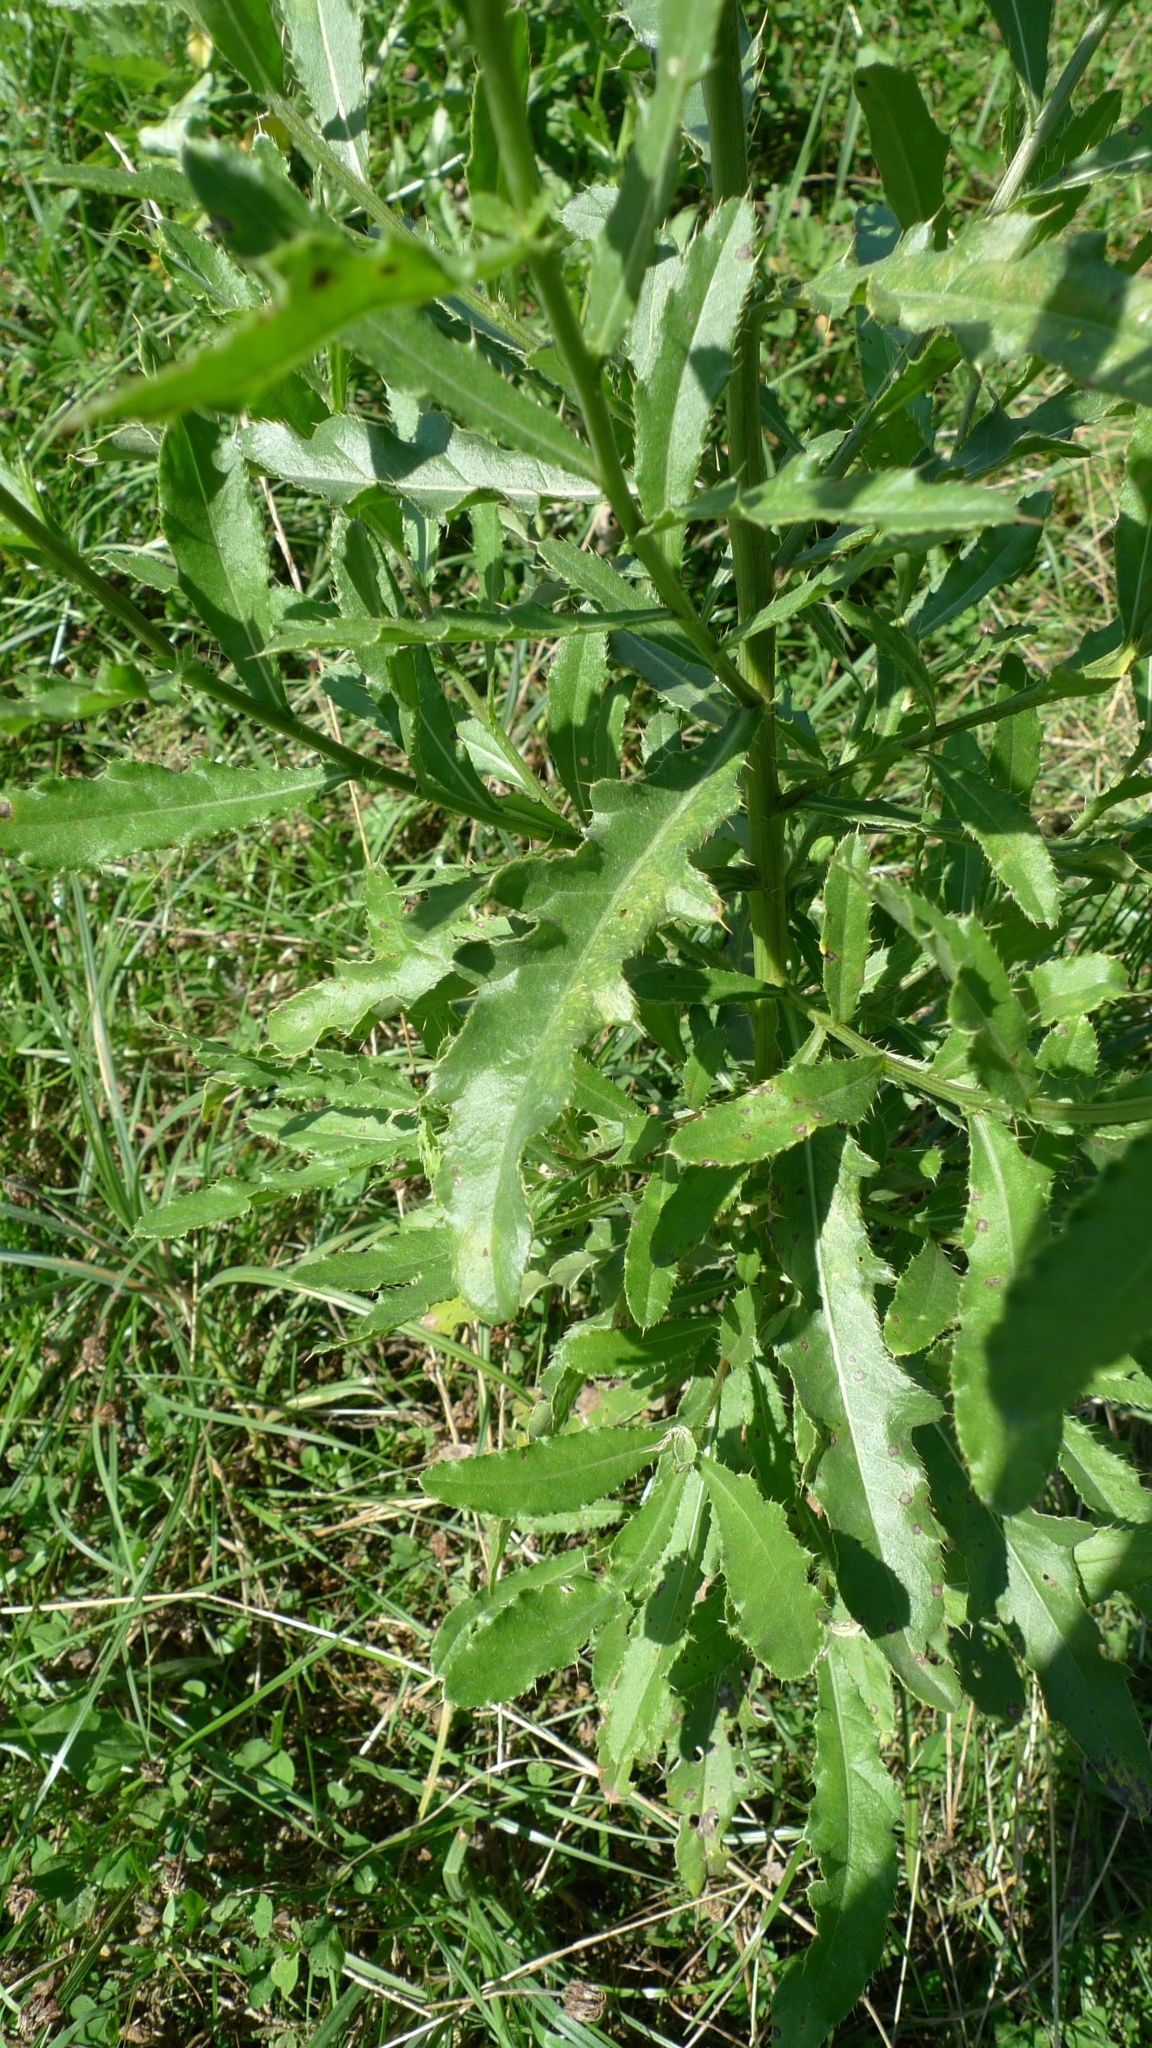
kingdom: Plantae
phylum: Tracheophyta
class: Magnoliopsida
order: Asterales
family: Asteraceae
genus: Cirsium
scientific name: Cirsium arvense
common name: Creeping thistle
